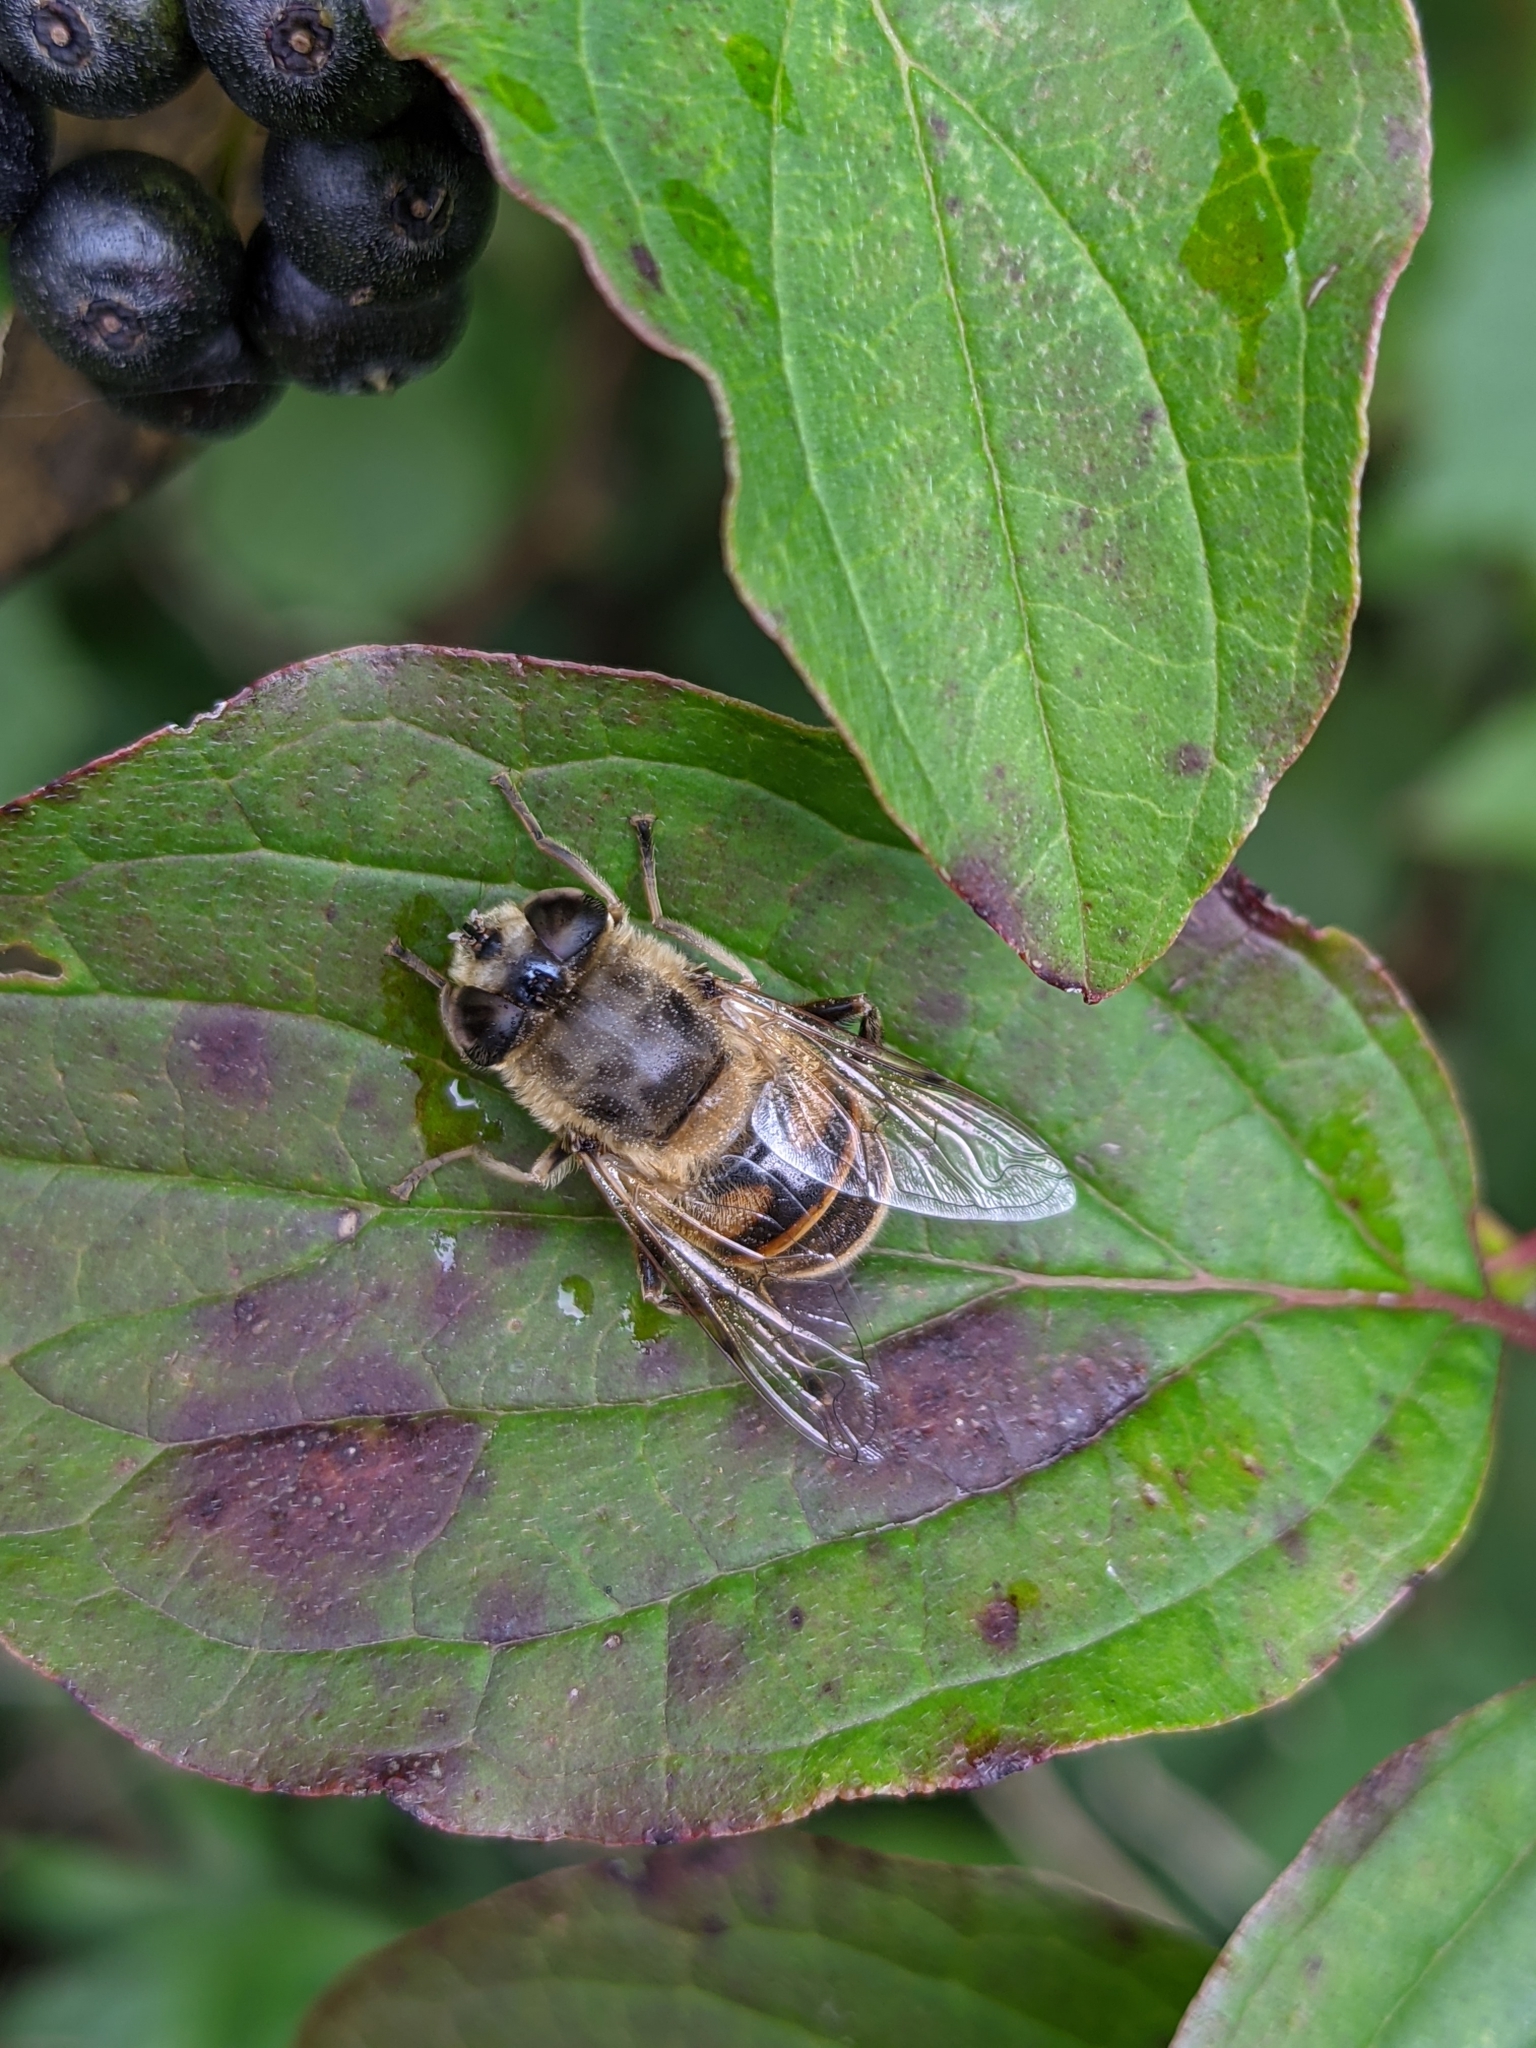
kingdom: Animalia
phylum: Arthropoda
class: Insecta
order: Diptera
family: Syrphidae
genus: Eristalis
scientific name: Eristalis tenax
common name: Drone fly
